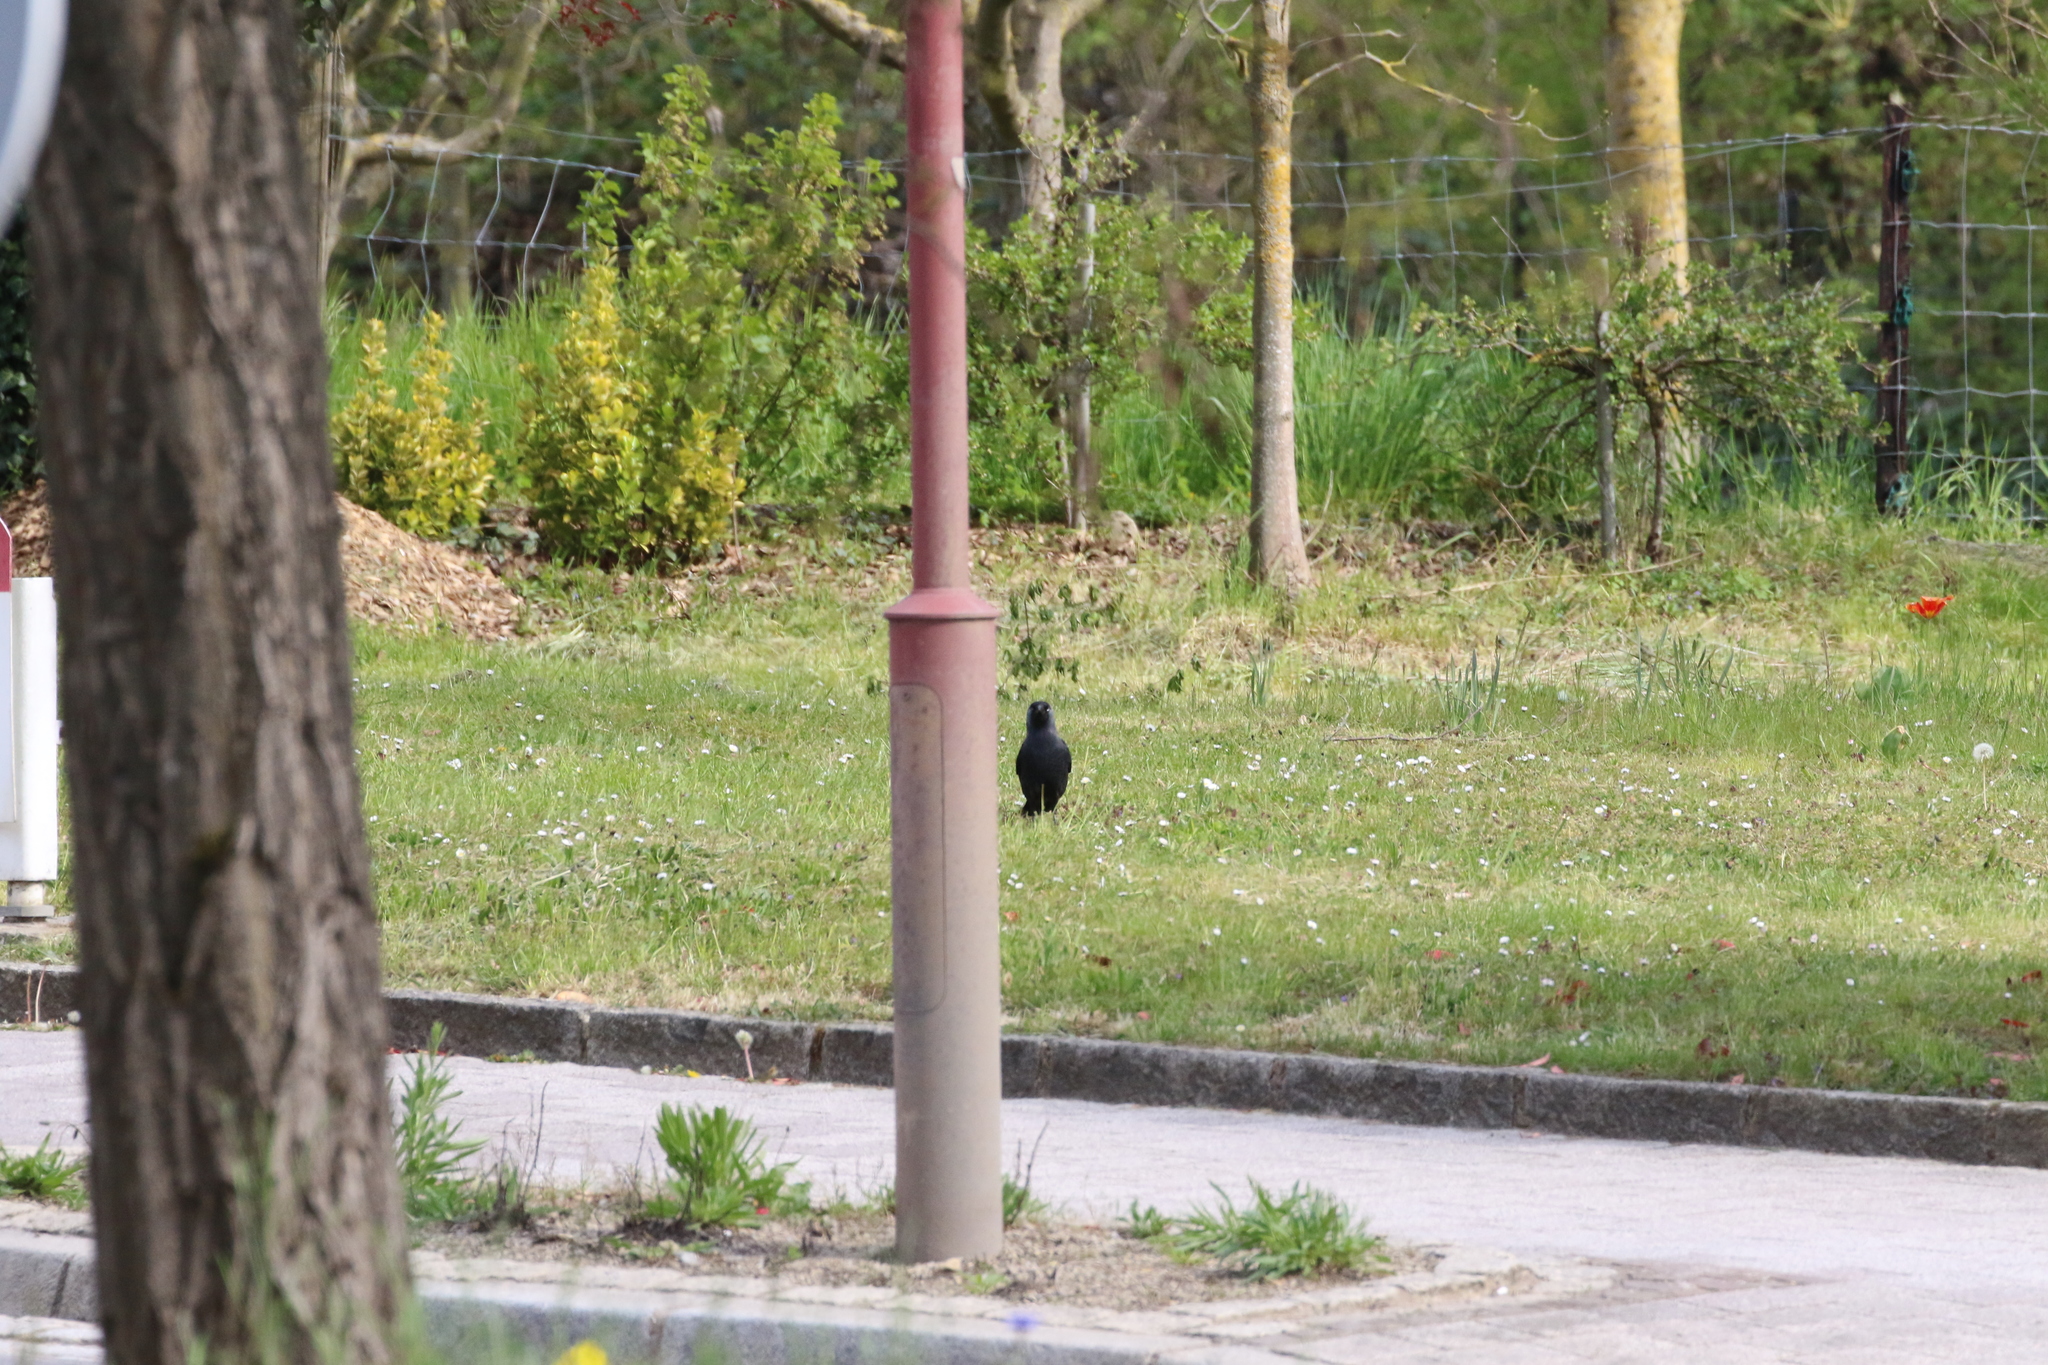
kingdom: Animalia
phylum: Chordata
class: Aves
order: Passeriformes
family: Corvidae
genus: Coloeus
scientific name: Coloeus monedula
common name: Western jackdaw
